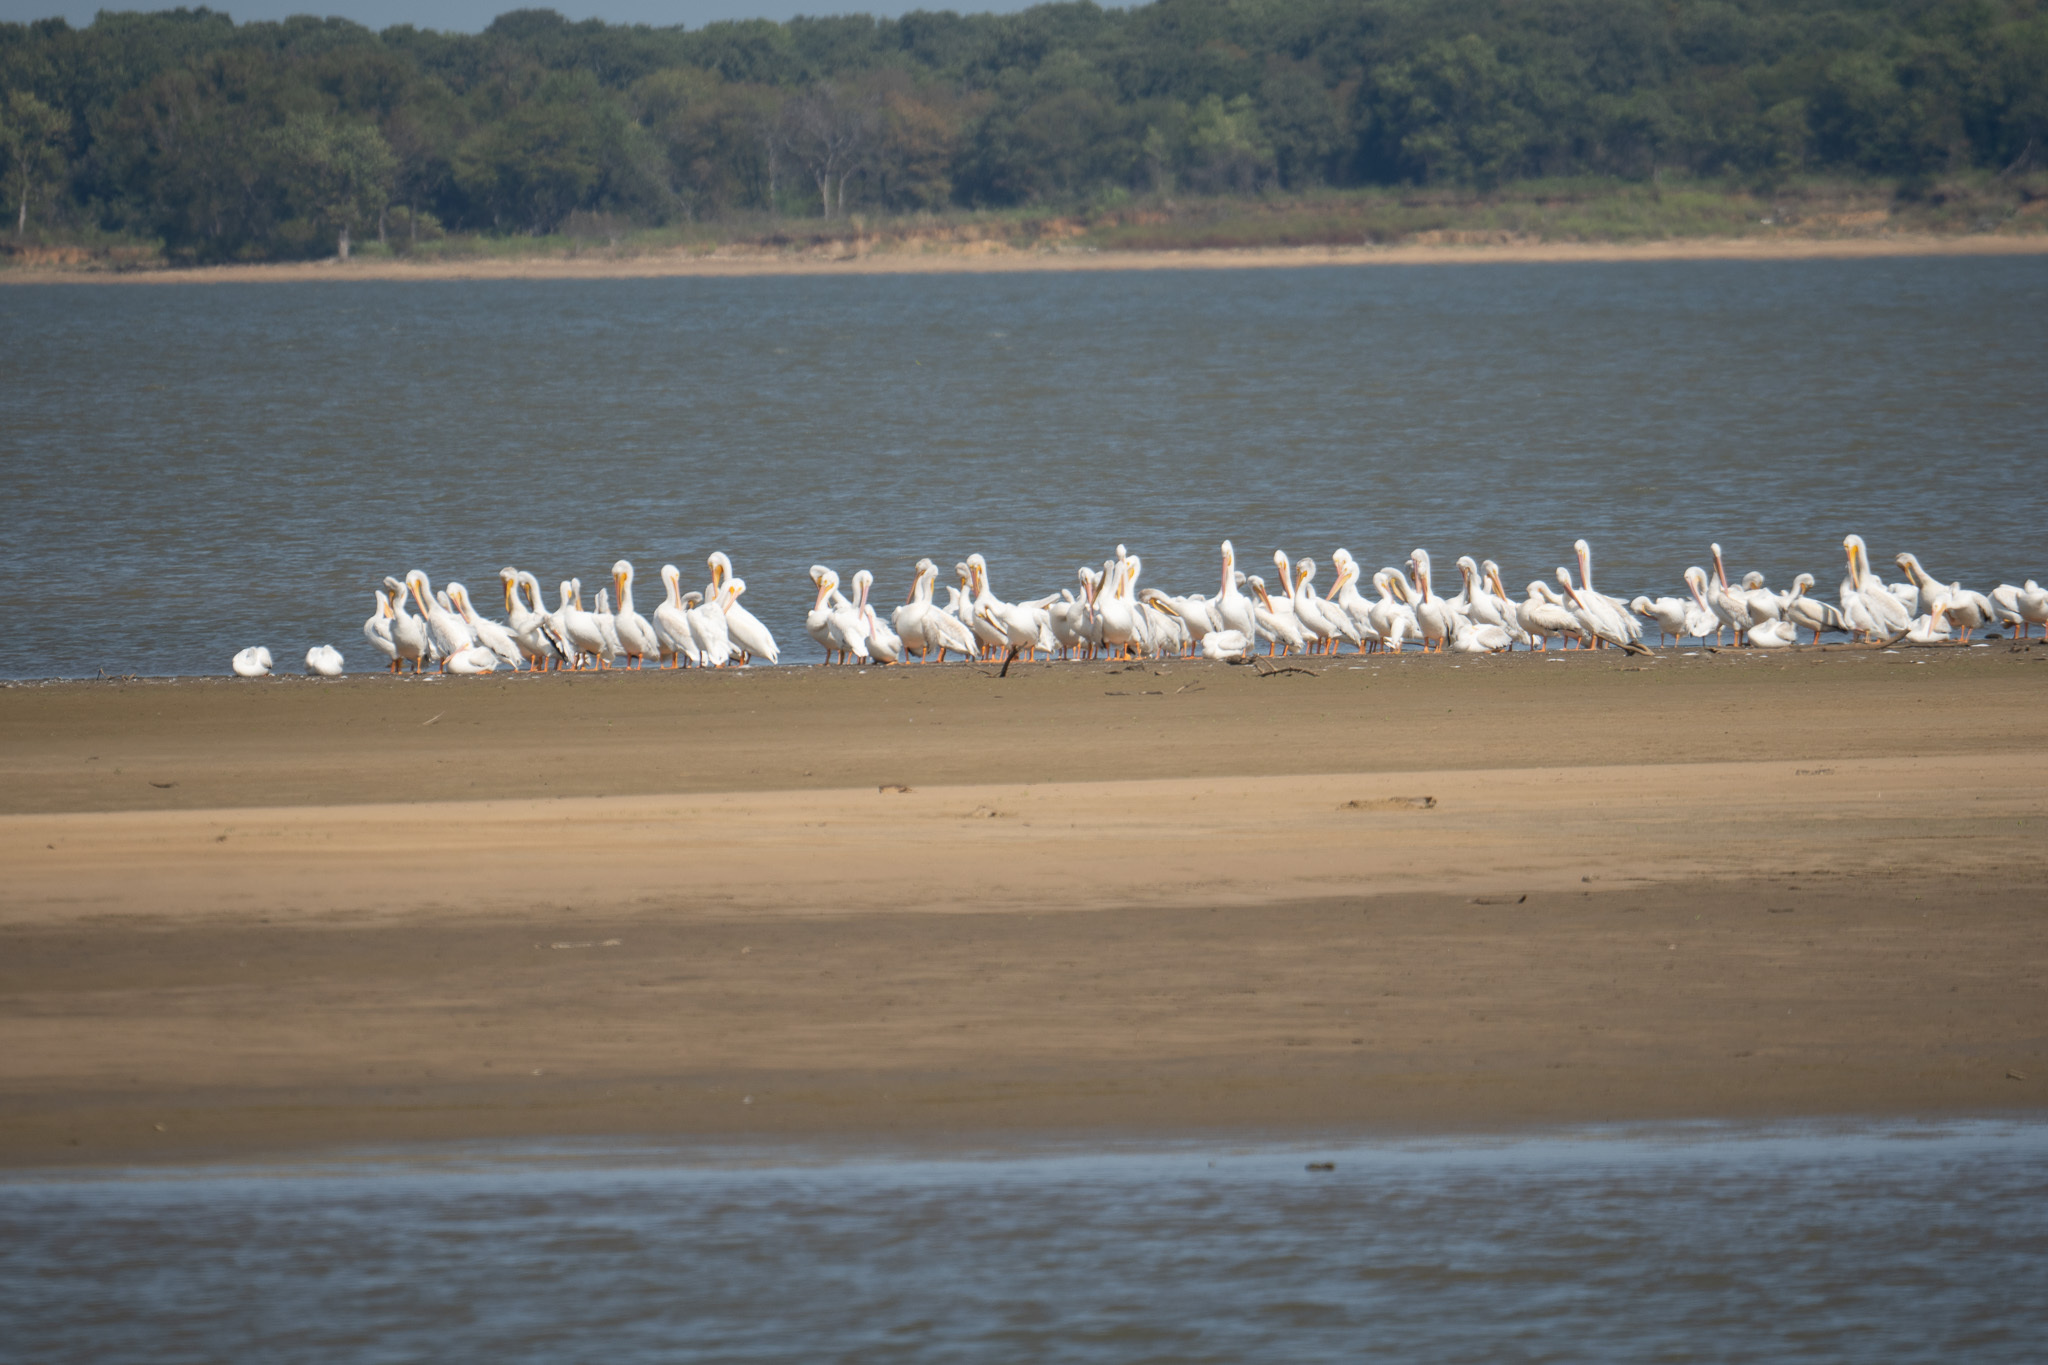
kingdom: Animalia
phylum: Chordata
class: Aves
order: Pelecaniformes
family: Pelecanidae
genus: Pelecanus
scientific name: Pelecanus erythrorhynchos
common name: American white pelican
